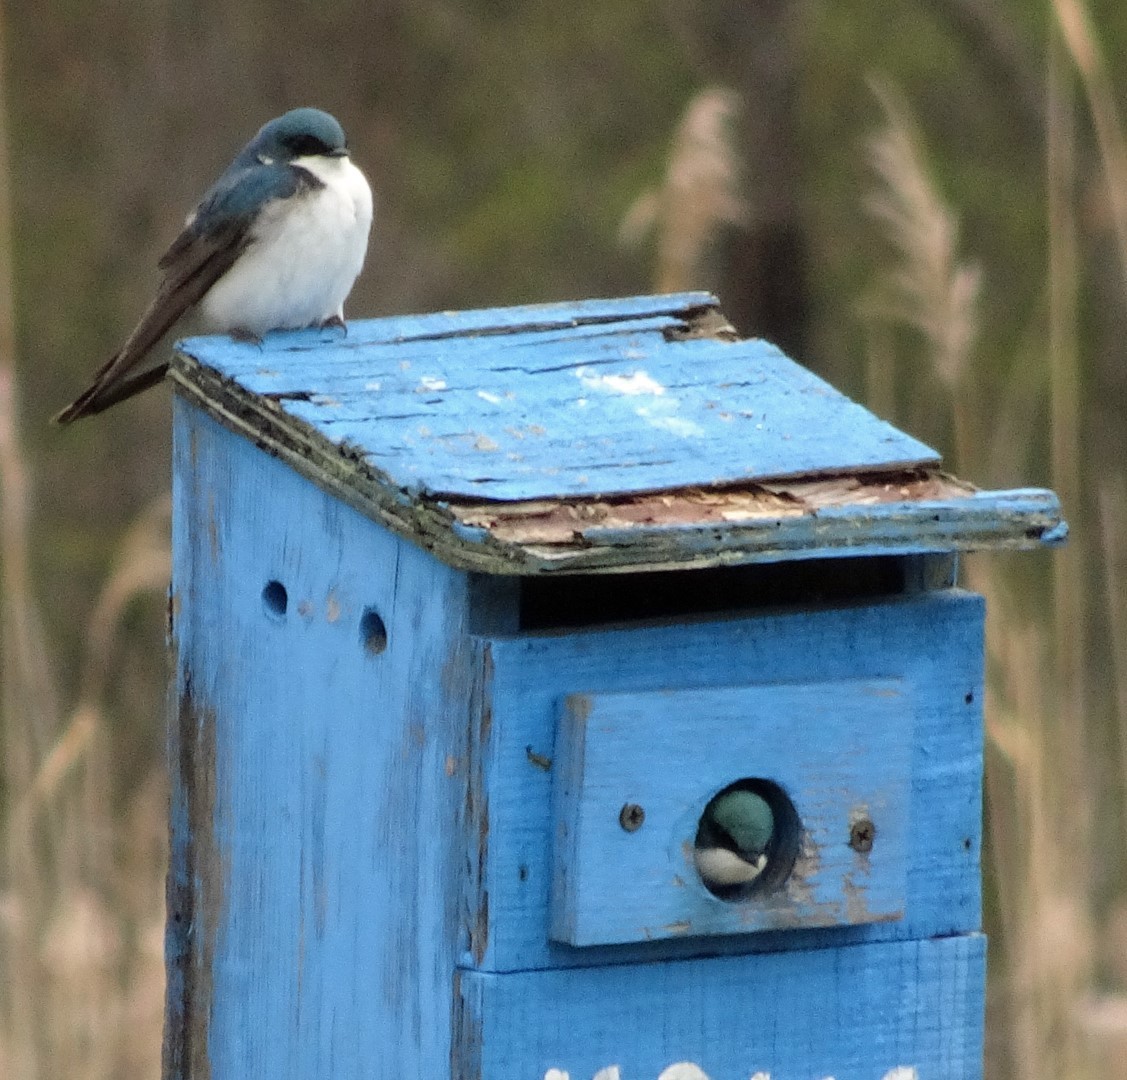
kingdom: Animalia
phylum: Chordata
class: Aves
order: Passeriformes
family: Hirundinidae
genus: Tachycineta
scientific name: Tachycineta bicolor
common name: Tree swallow
